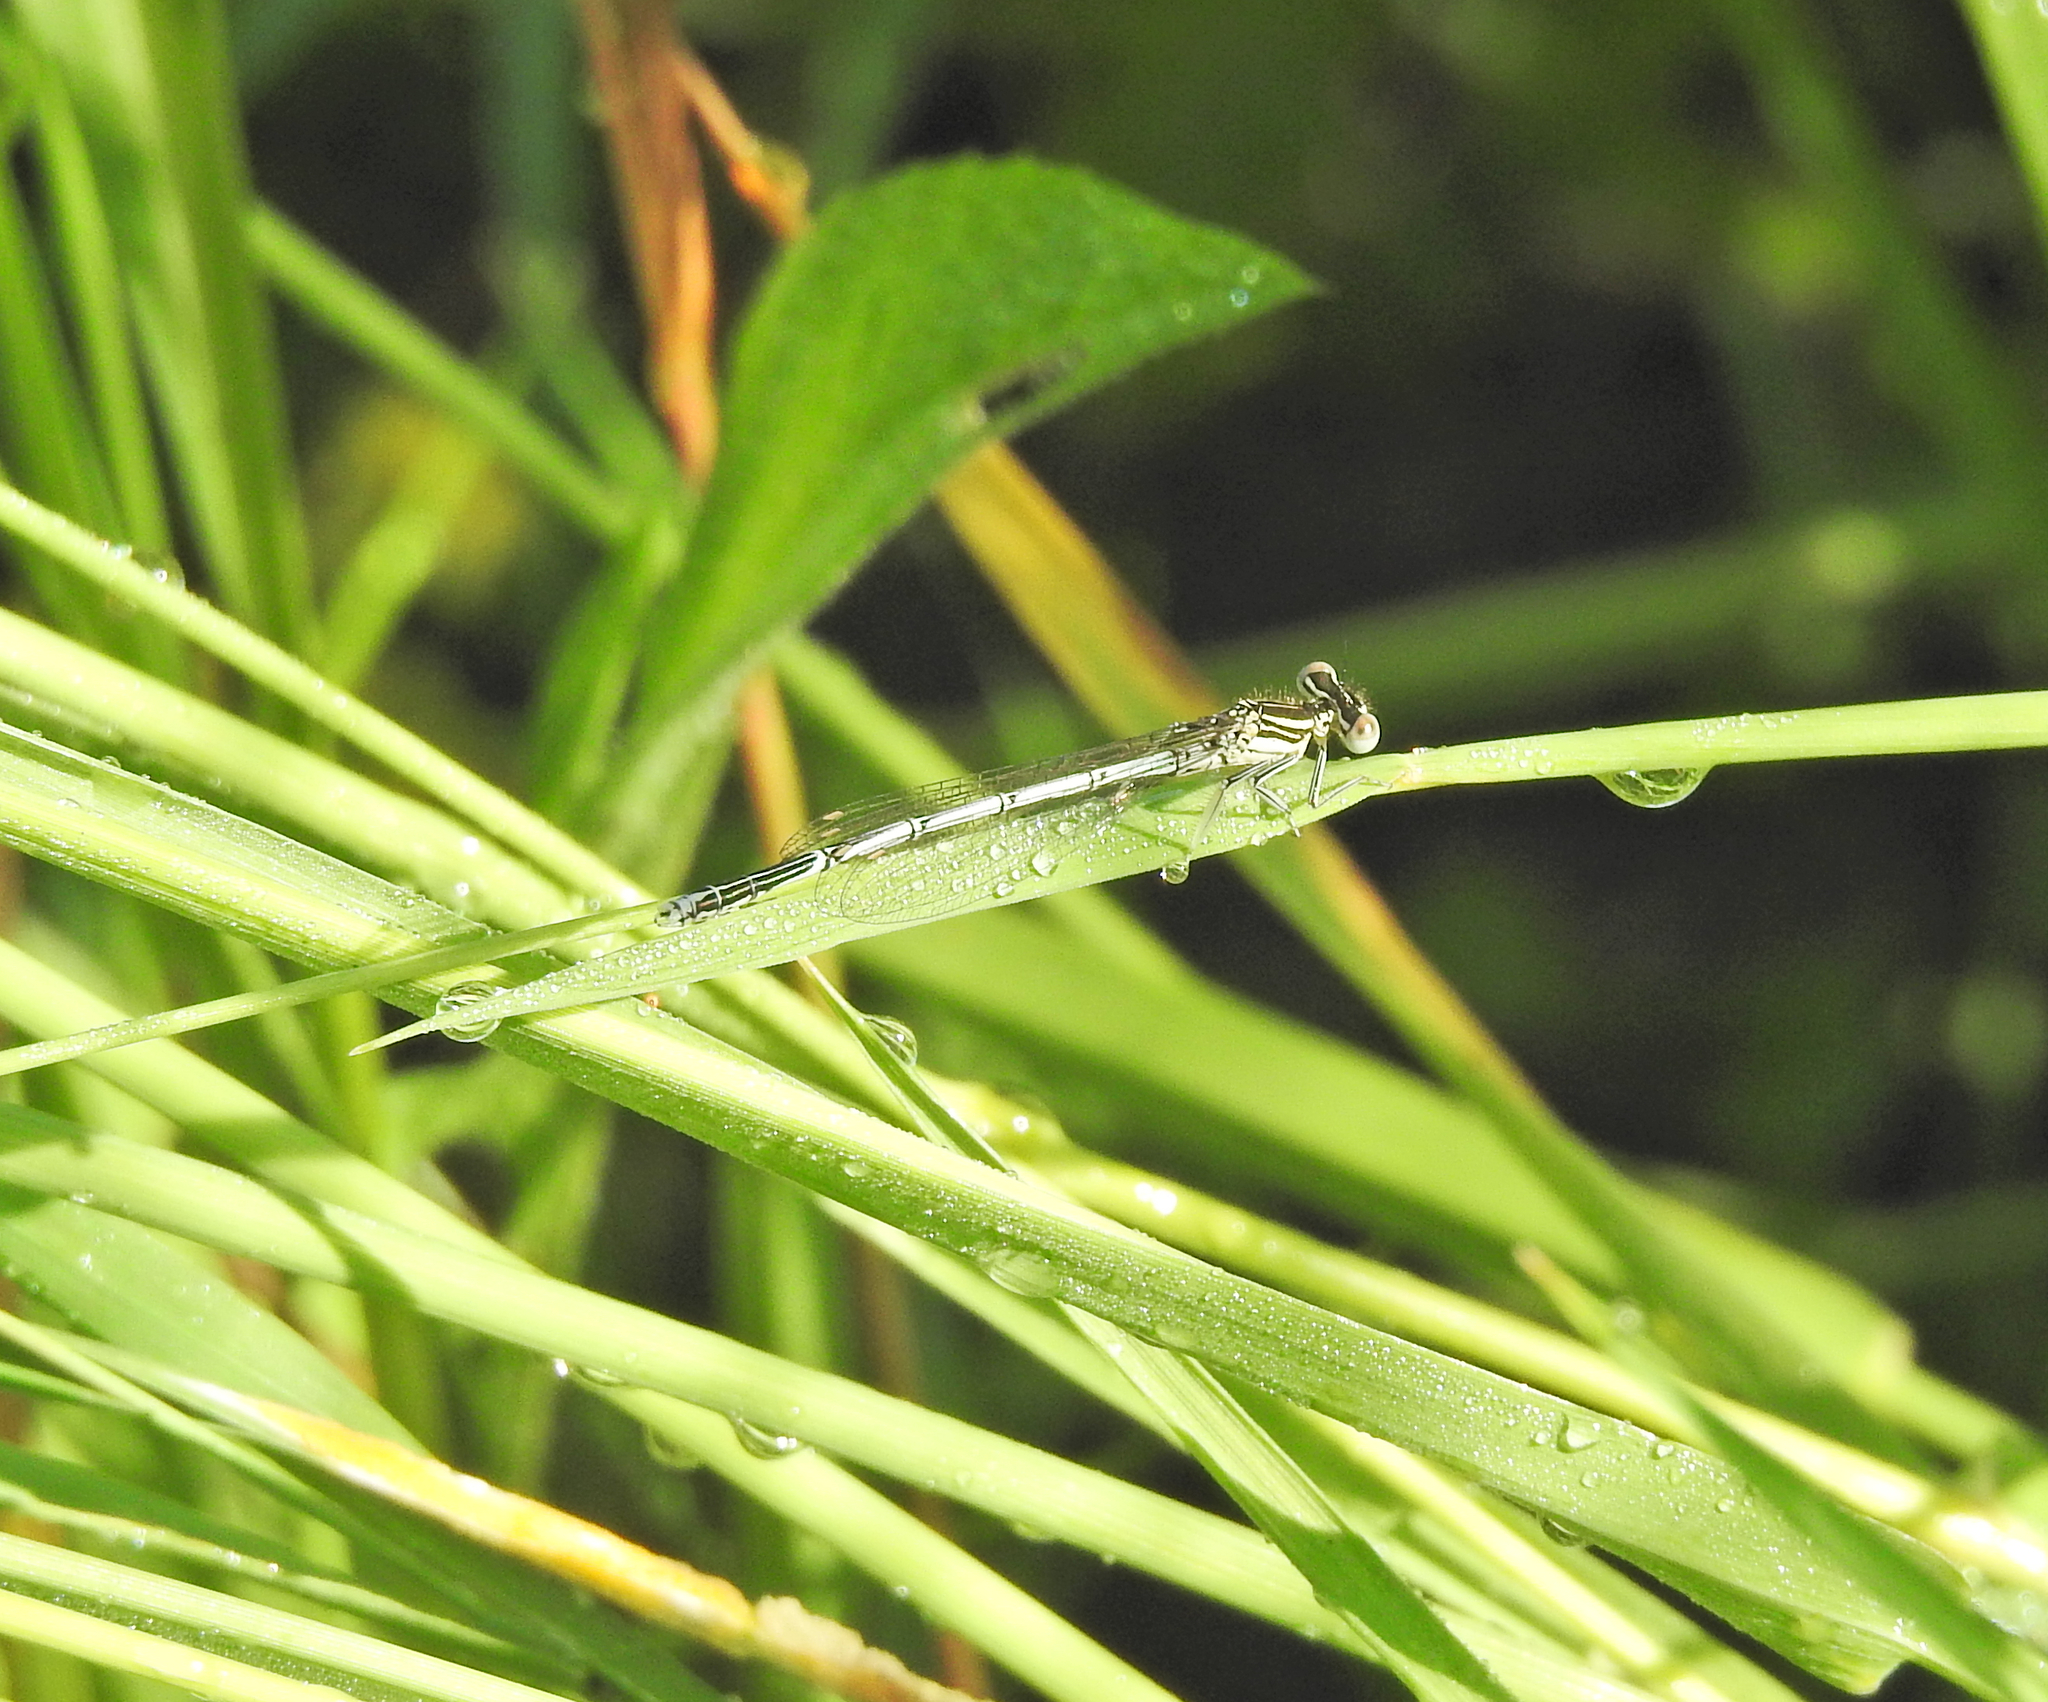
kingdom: Animalia
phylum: Arthropoda
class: Insecta
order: Odonata
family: Platycnemididae
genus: Platycnemis
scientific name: Platycnemis pennipes
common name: White-legged damselfly
